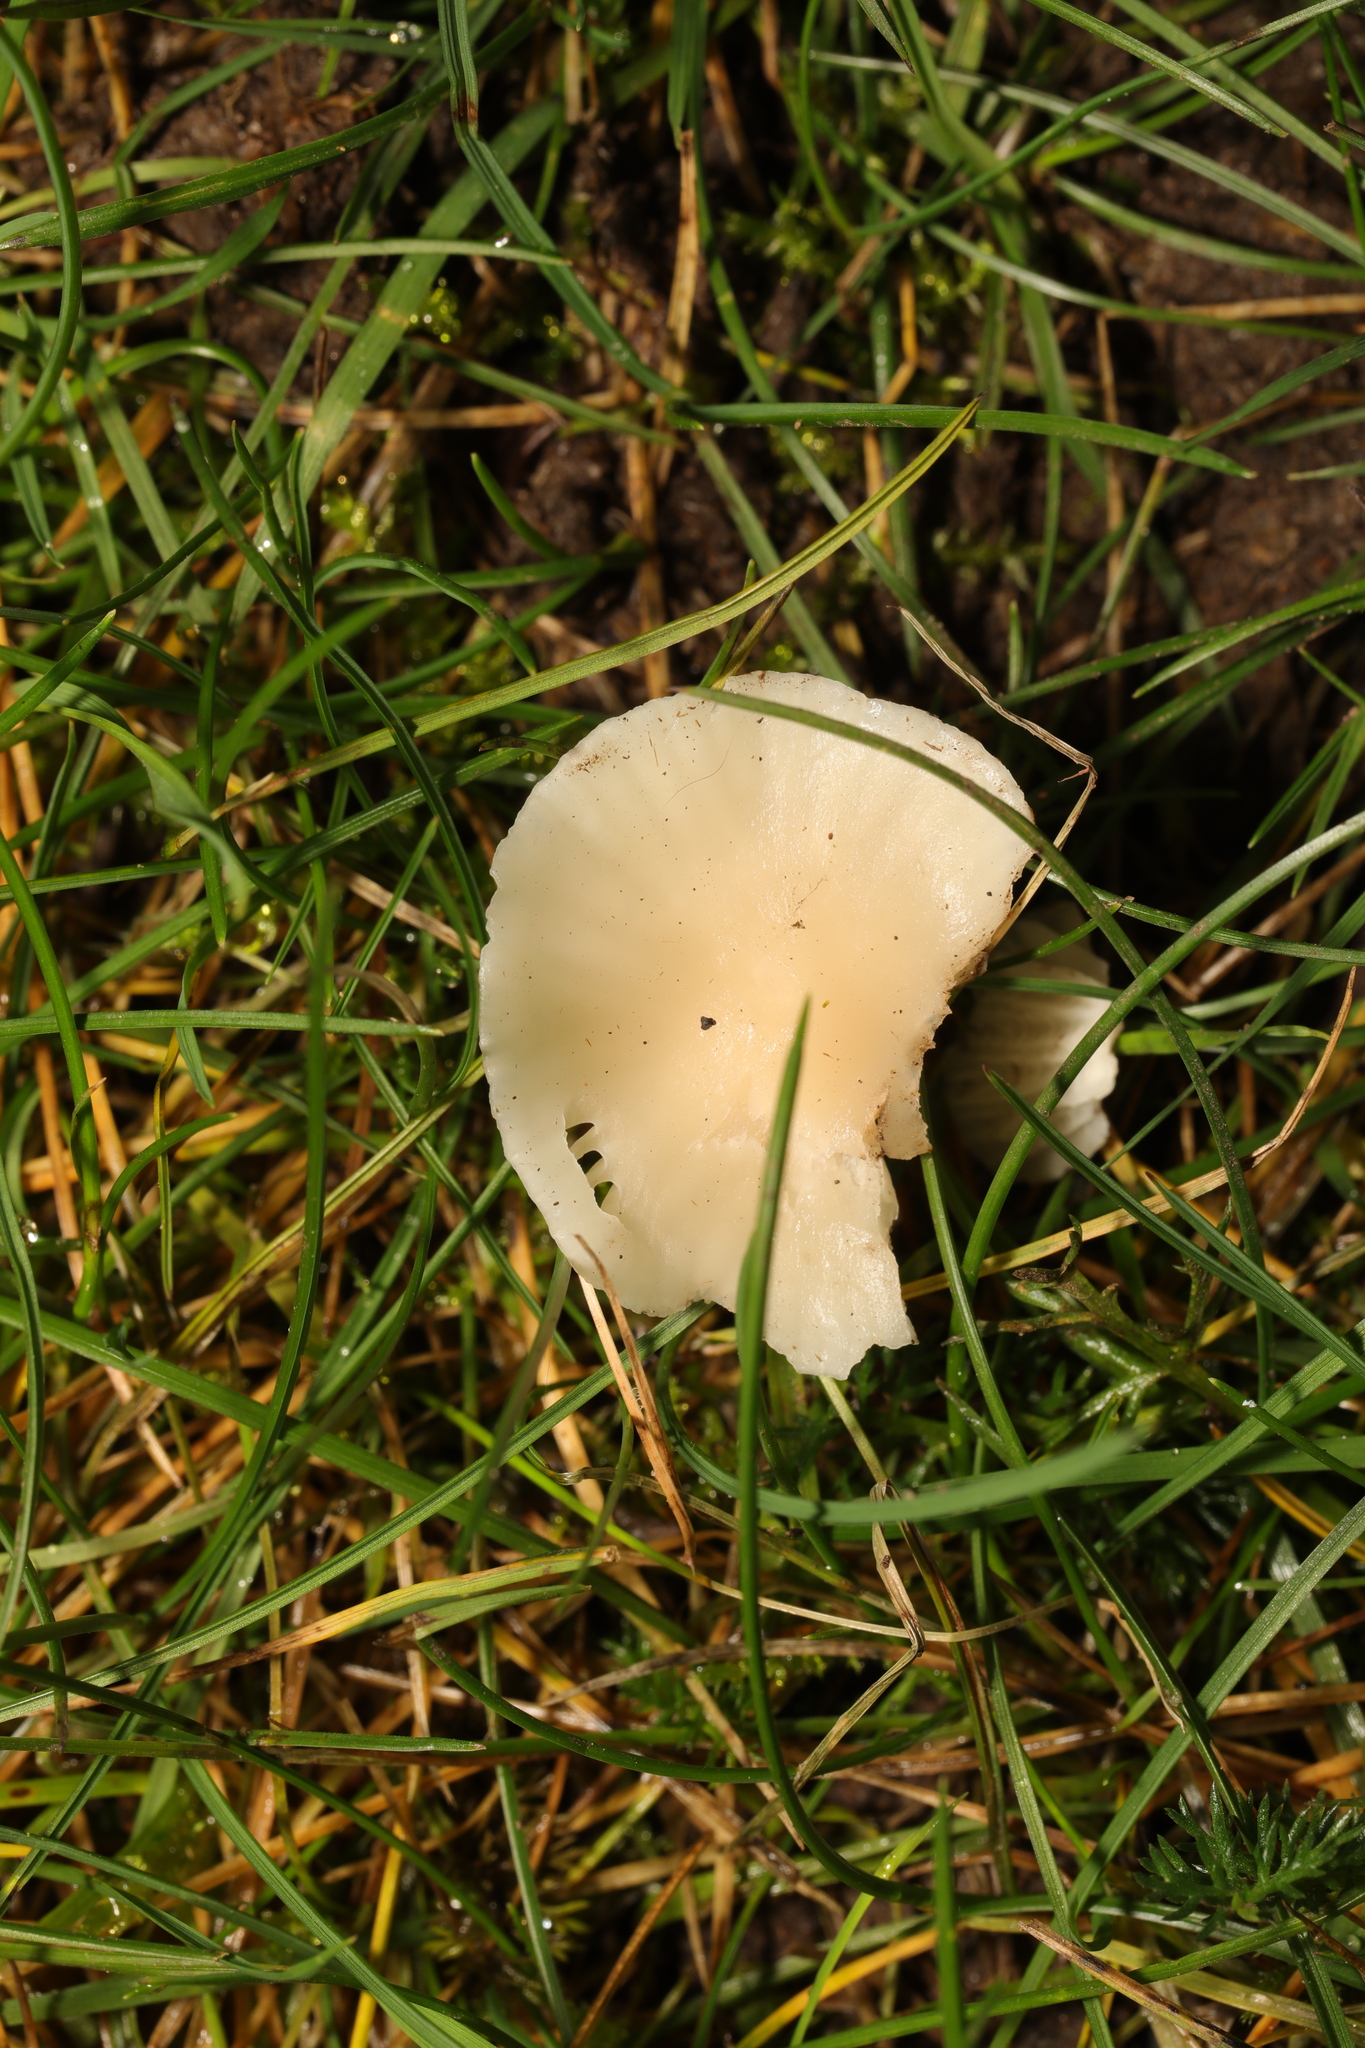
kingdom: Fungi
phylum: Basidiomycota
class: Agaricomycetes
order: Agaricales
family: Hygrophoraceae
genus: Cuphophyllus
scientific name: Cuphophyllus virgineus
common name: Snowy waxcap
